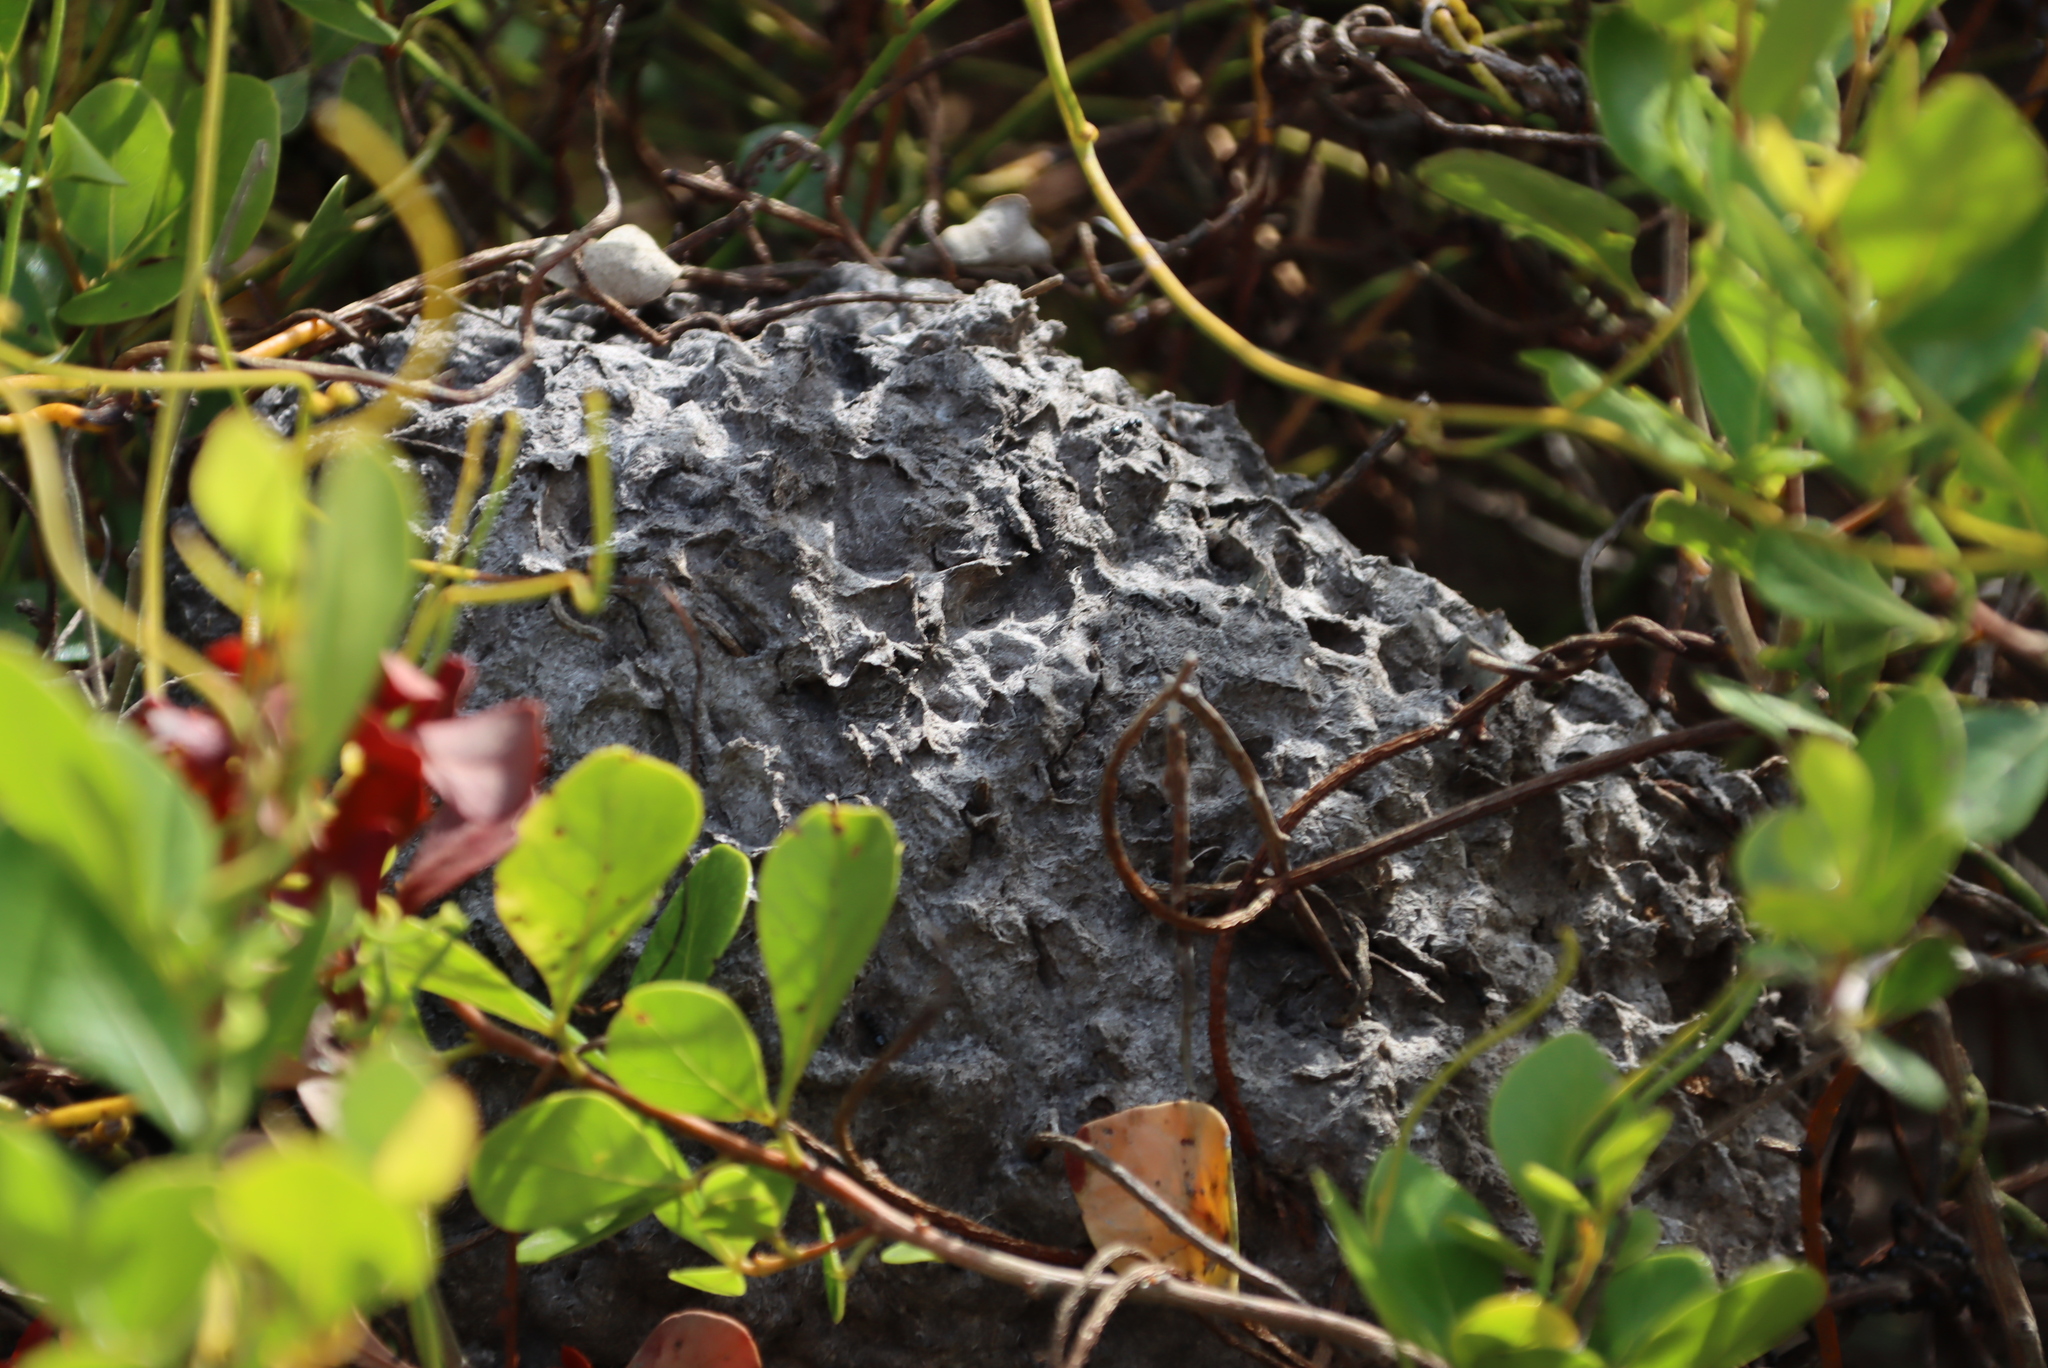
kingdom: Plantae
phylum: Tracheophyta
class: Magnoliopsida
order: Sapindales
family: Anacardiaceae
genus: Searsia
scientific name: Searsia lucida
